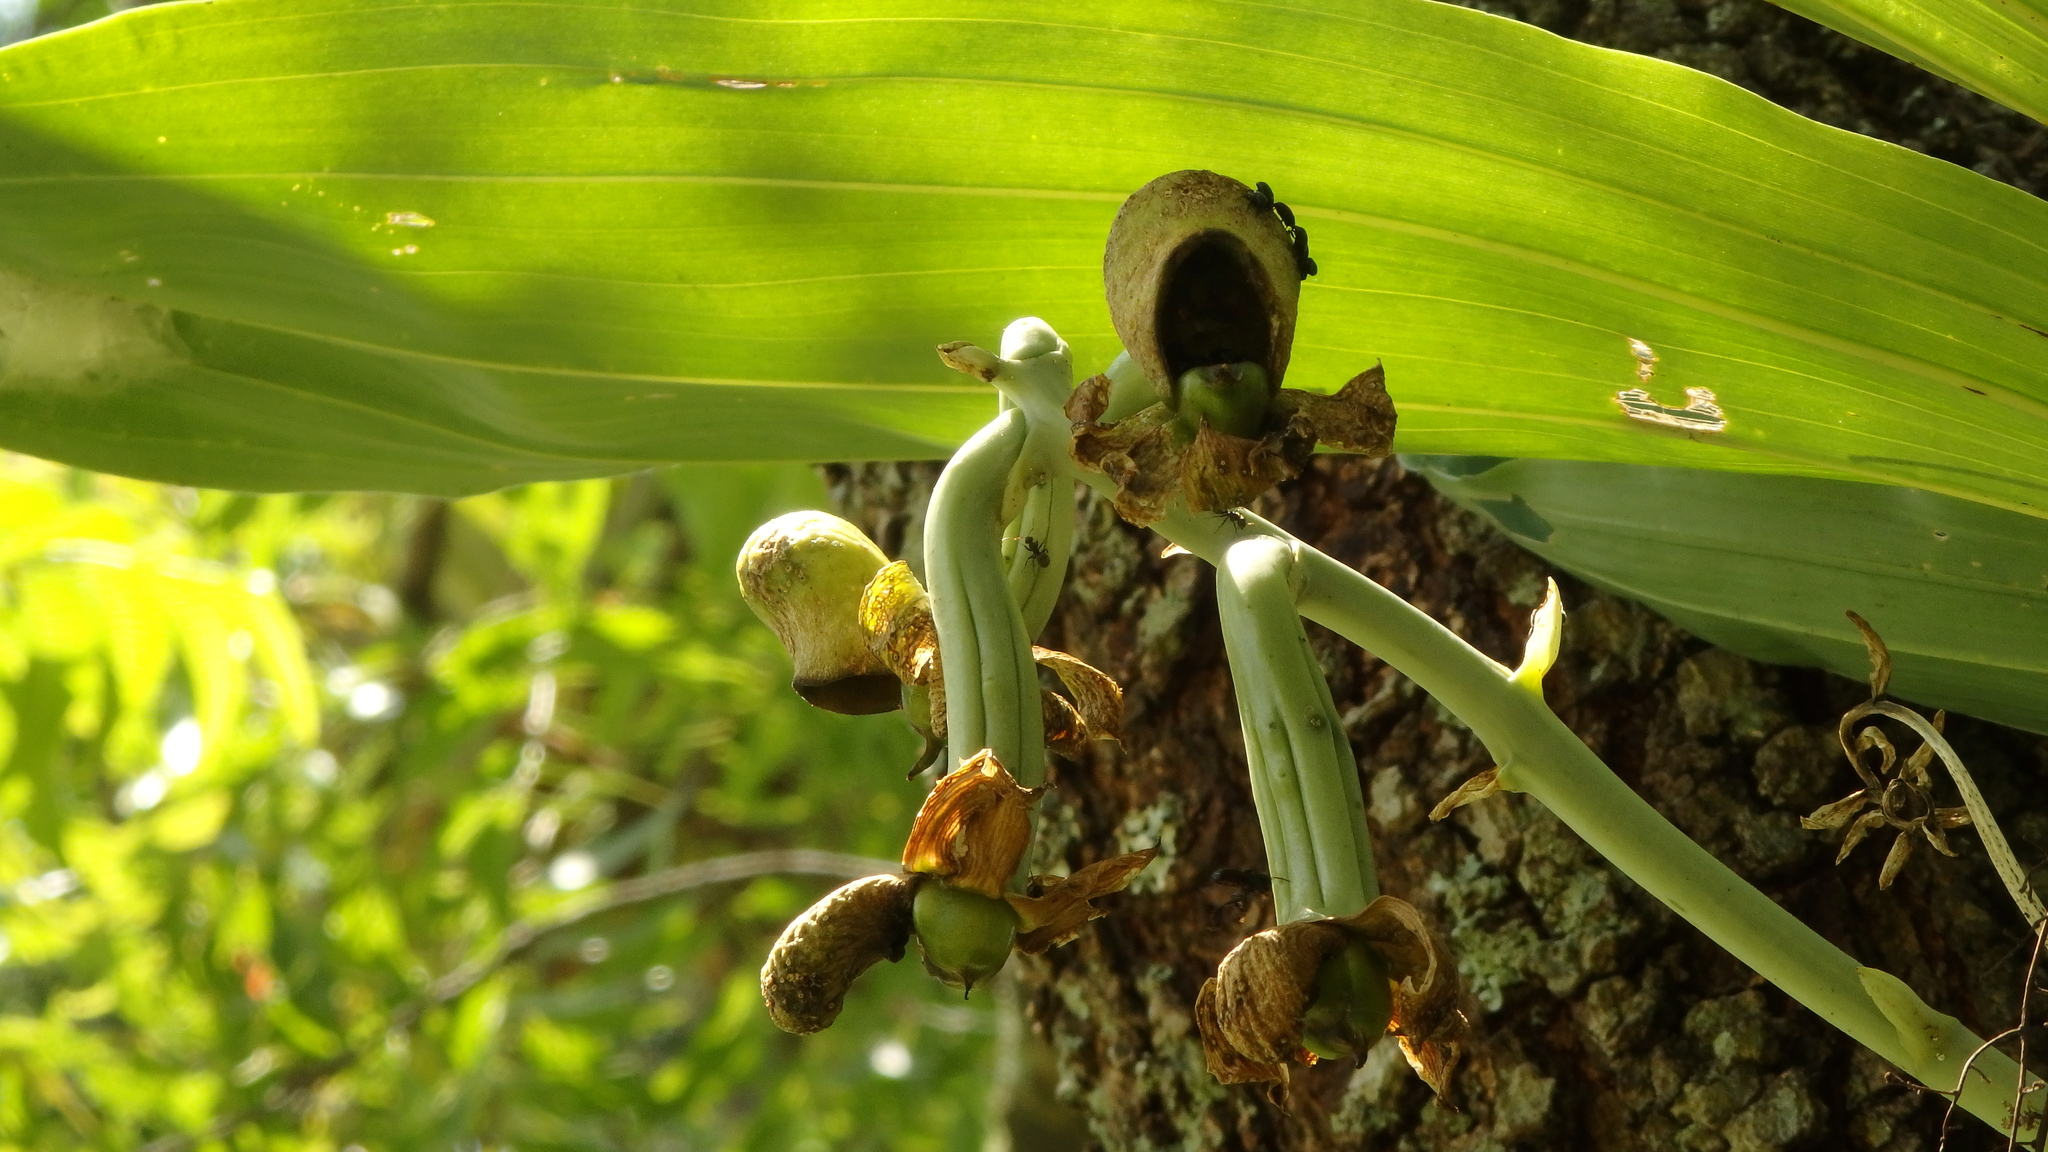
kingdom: Plantae
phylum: Tracheophyta
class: Liliopsida
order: Asparagales
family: Orchidaceae
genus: Catasetum
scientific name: Catasetum integerrimum
